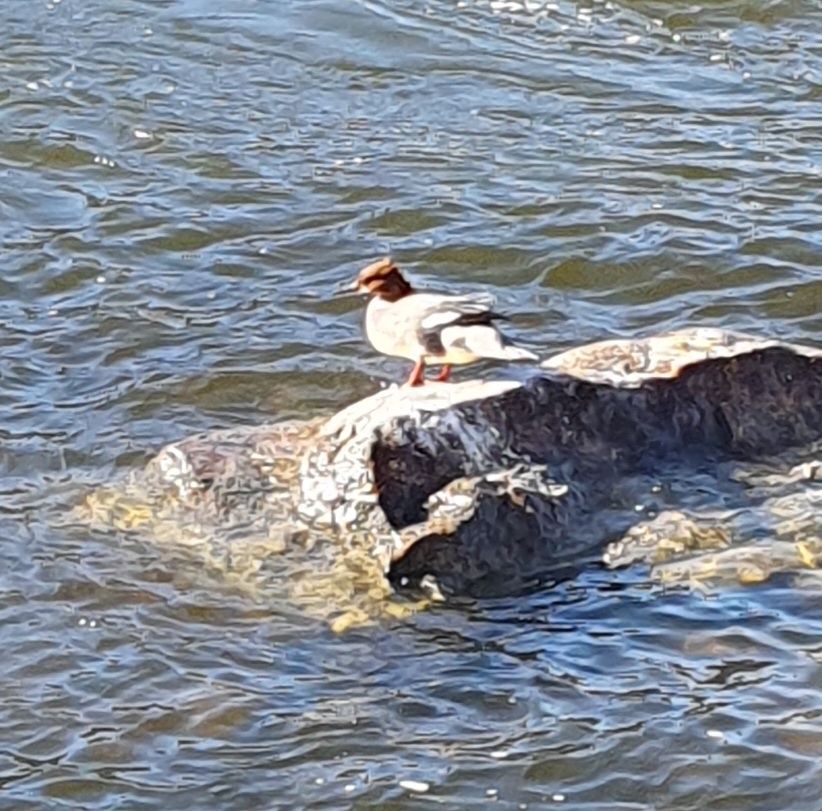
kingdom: Animalia
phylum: Chordata
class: Aves
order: Anseriformes
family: Anatidae
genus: Mergus
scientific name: Mergus merganser
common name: Common merganser
